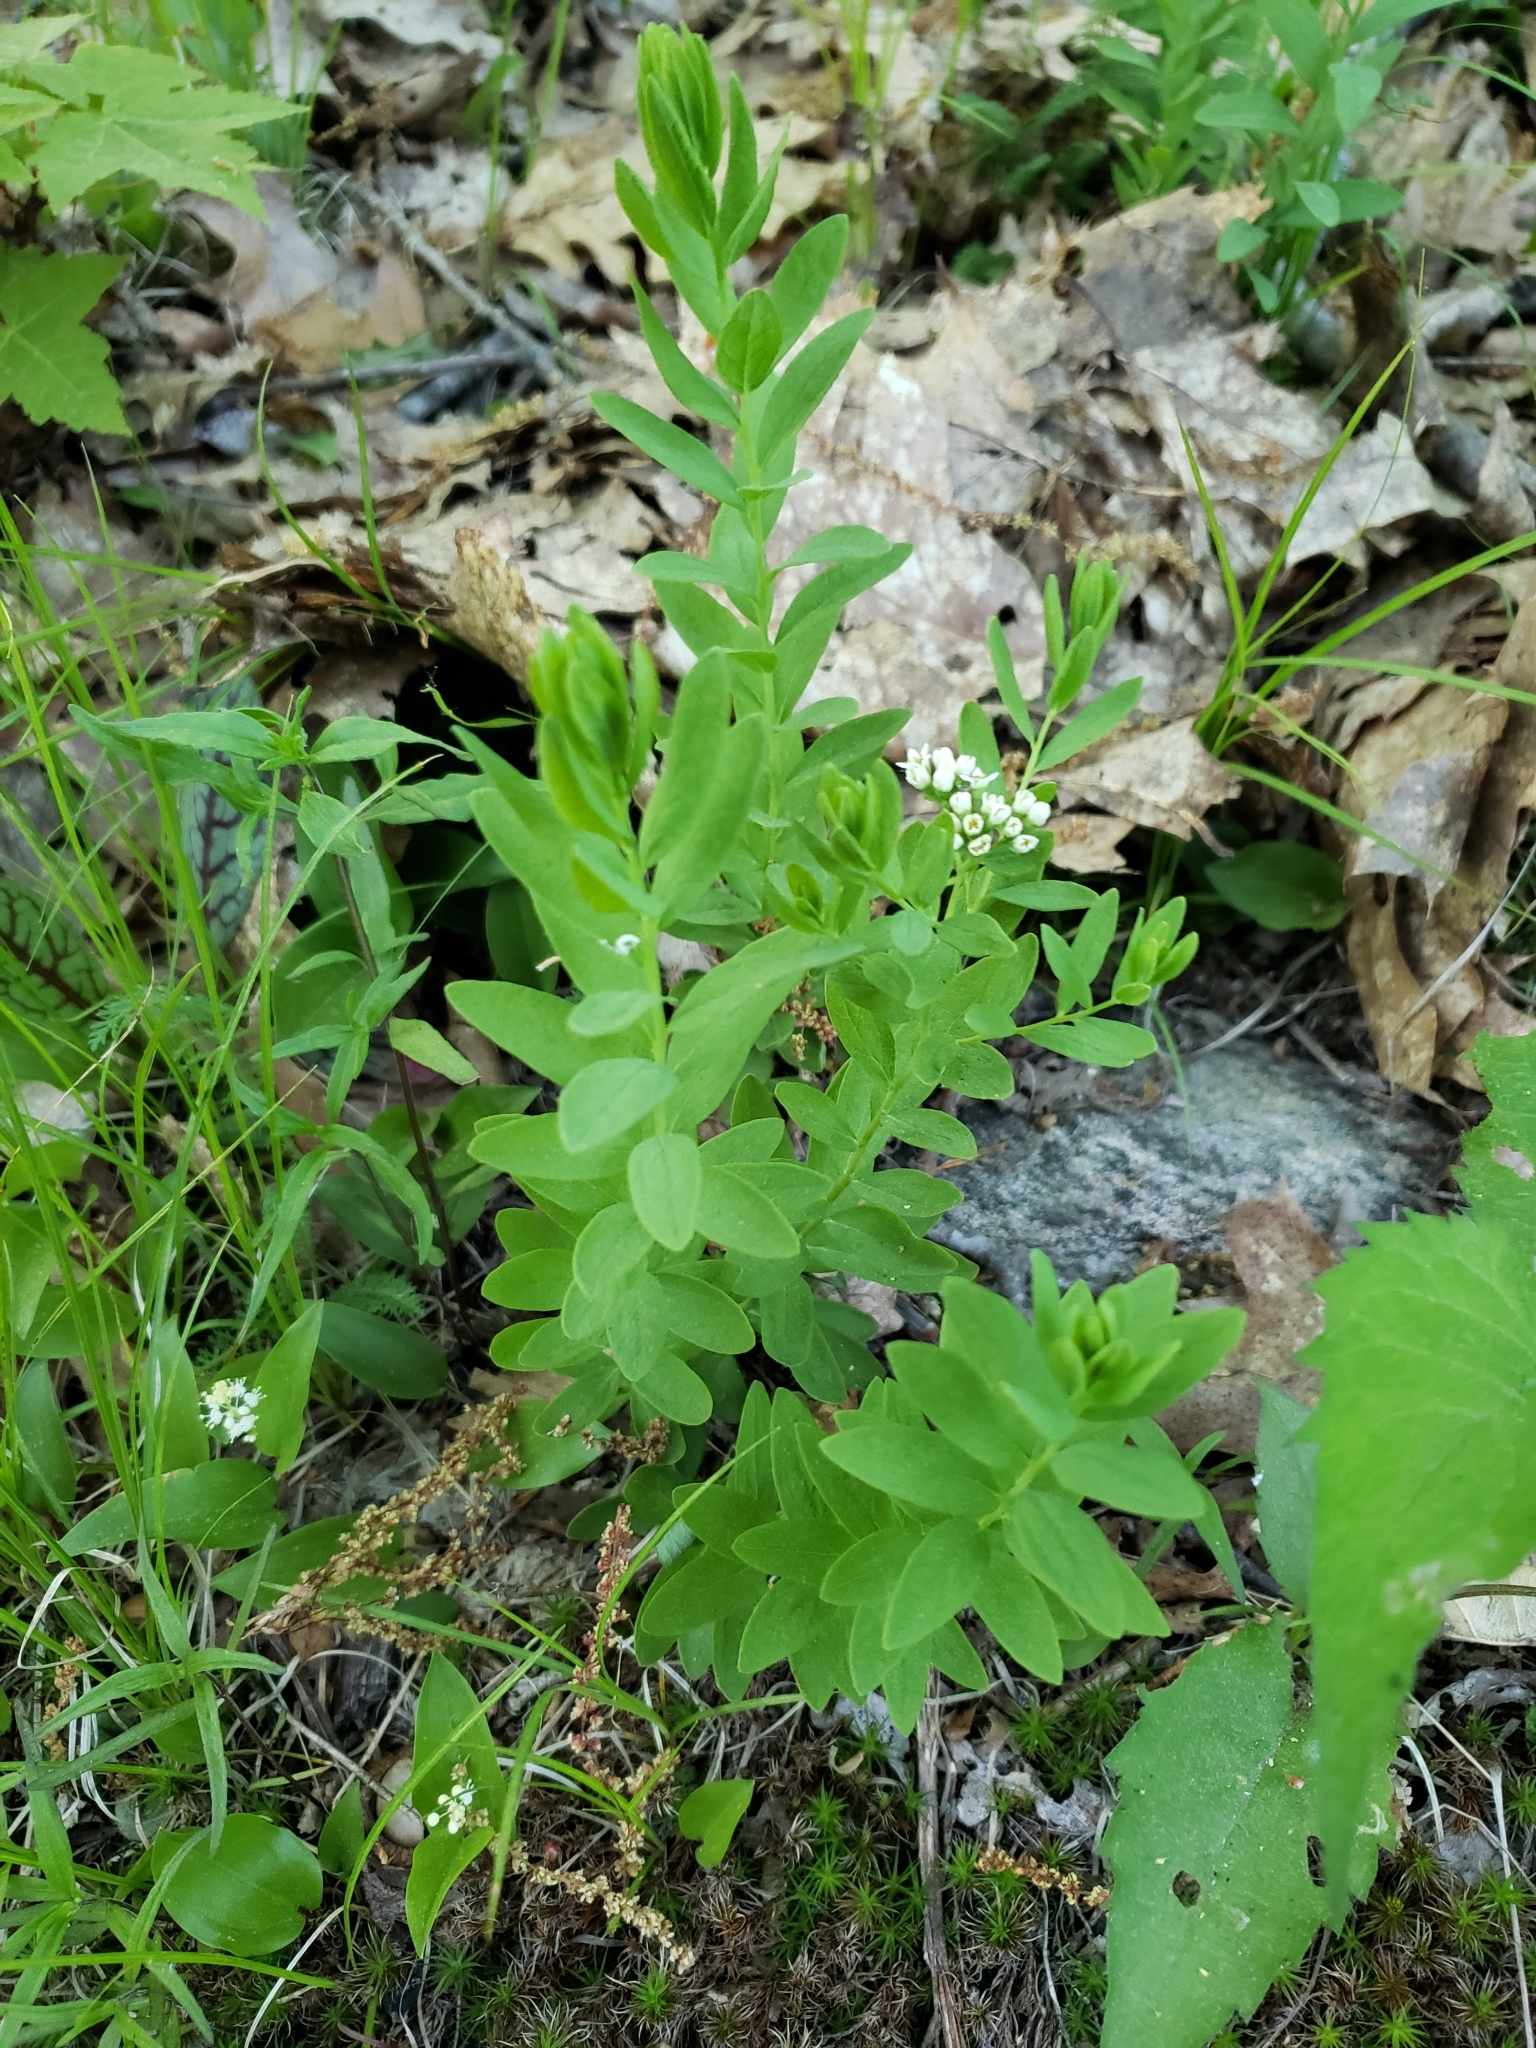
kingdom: Plantae
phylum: Tracheophyta
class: Magnoliopsida
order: Santalales
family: Comandraceae
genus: Comandra
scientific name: Comandra umbellata
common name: Bastard toadflax
